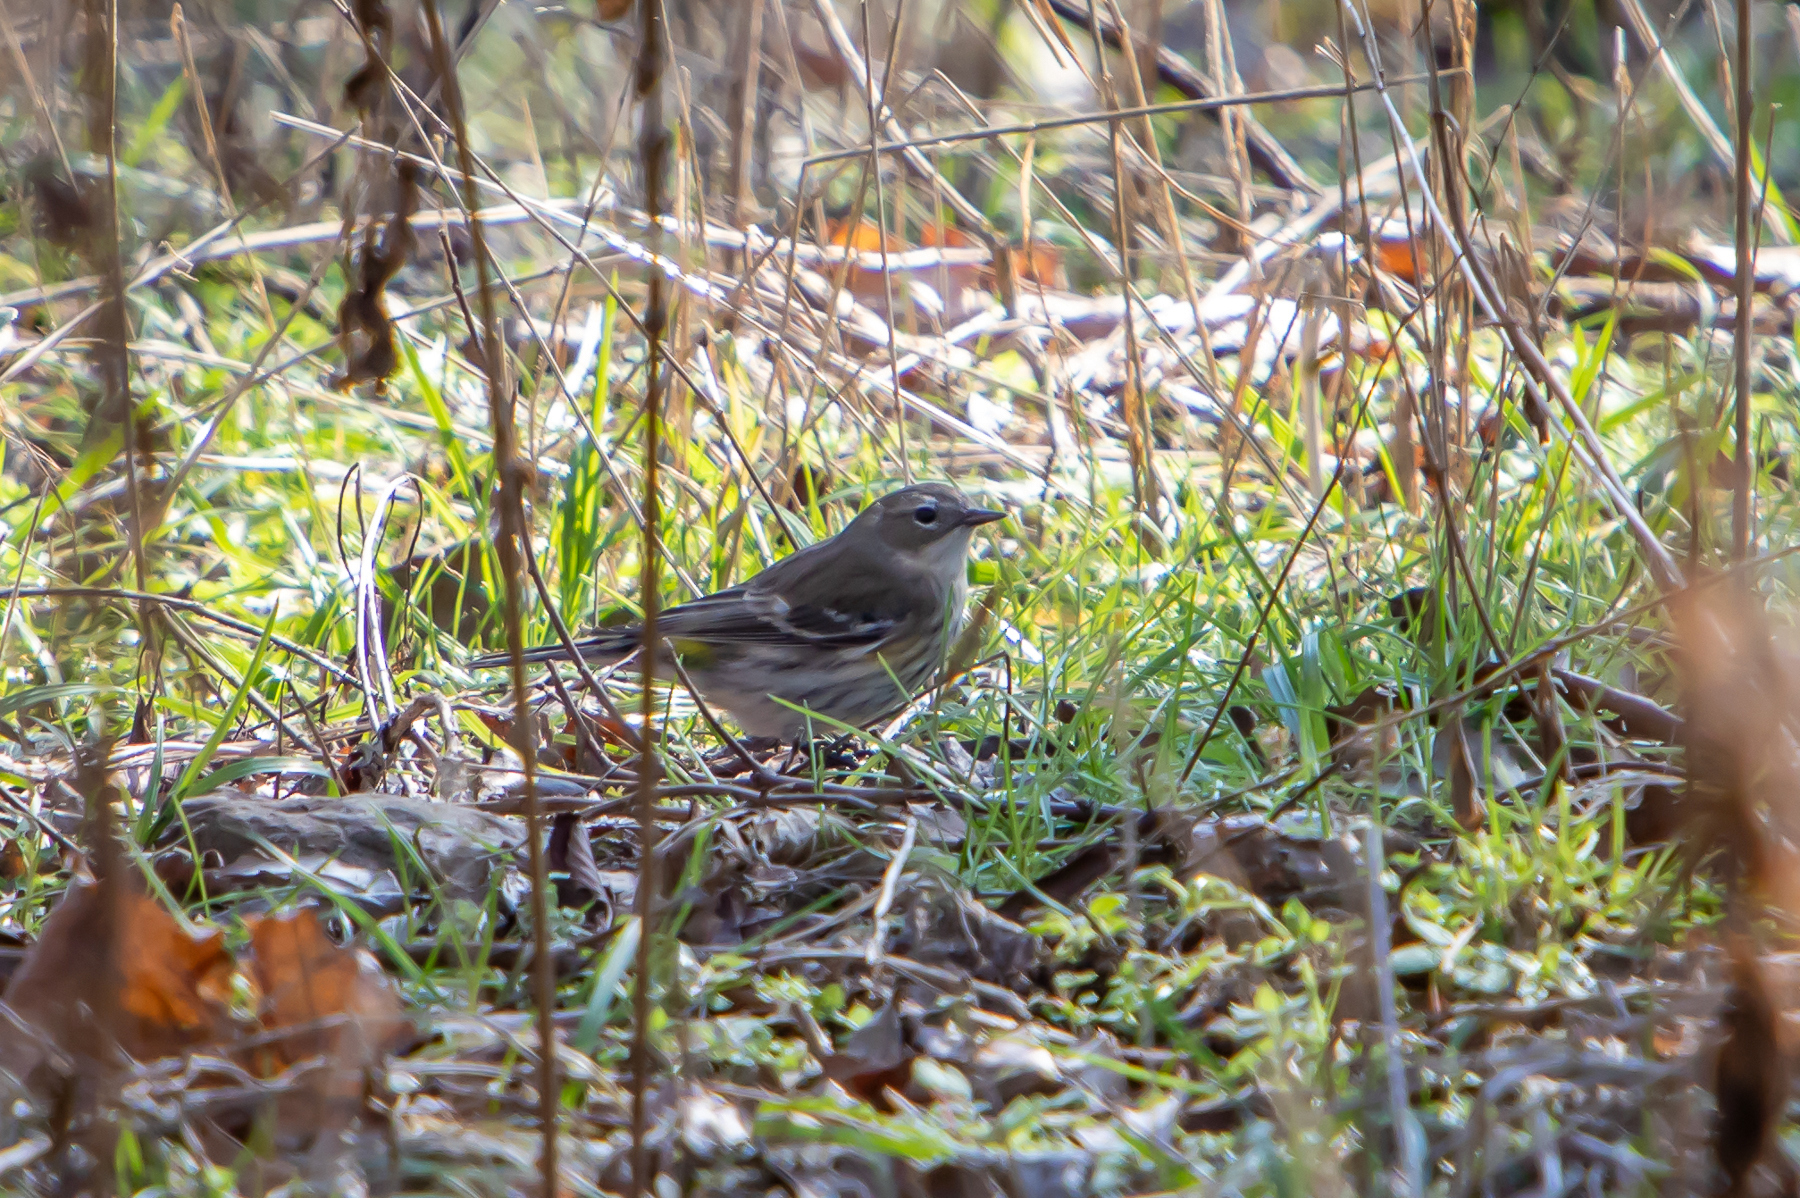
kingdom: Animalia
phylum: Chordata
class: Aves
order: Passeriformes
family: Parulidae
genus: Setophaga
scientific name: Setophaga coronata
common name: Myrtle warbler
